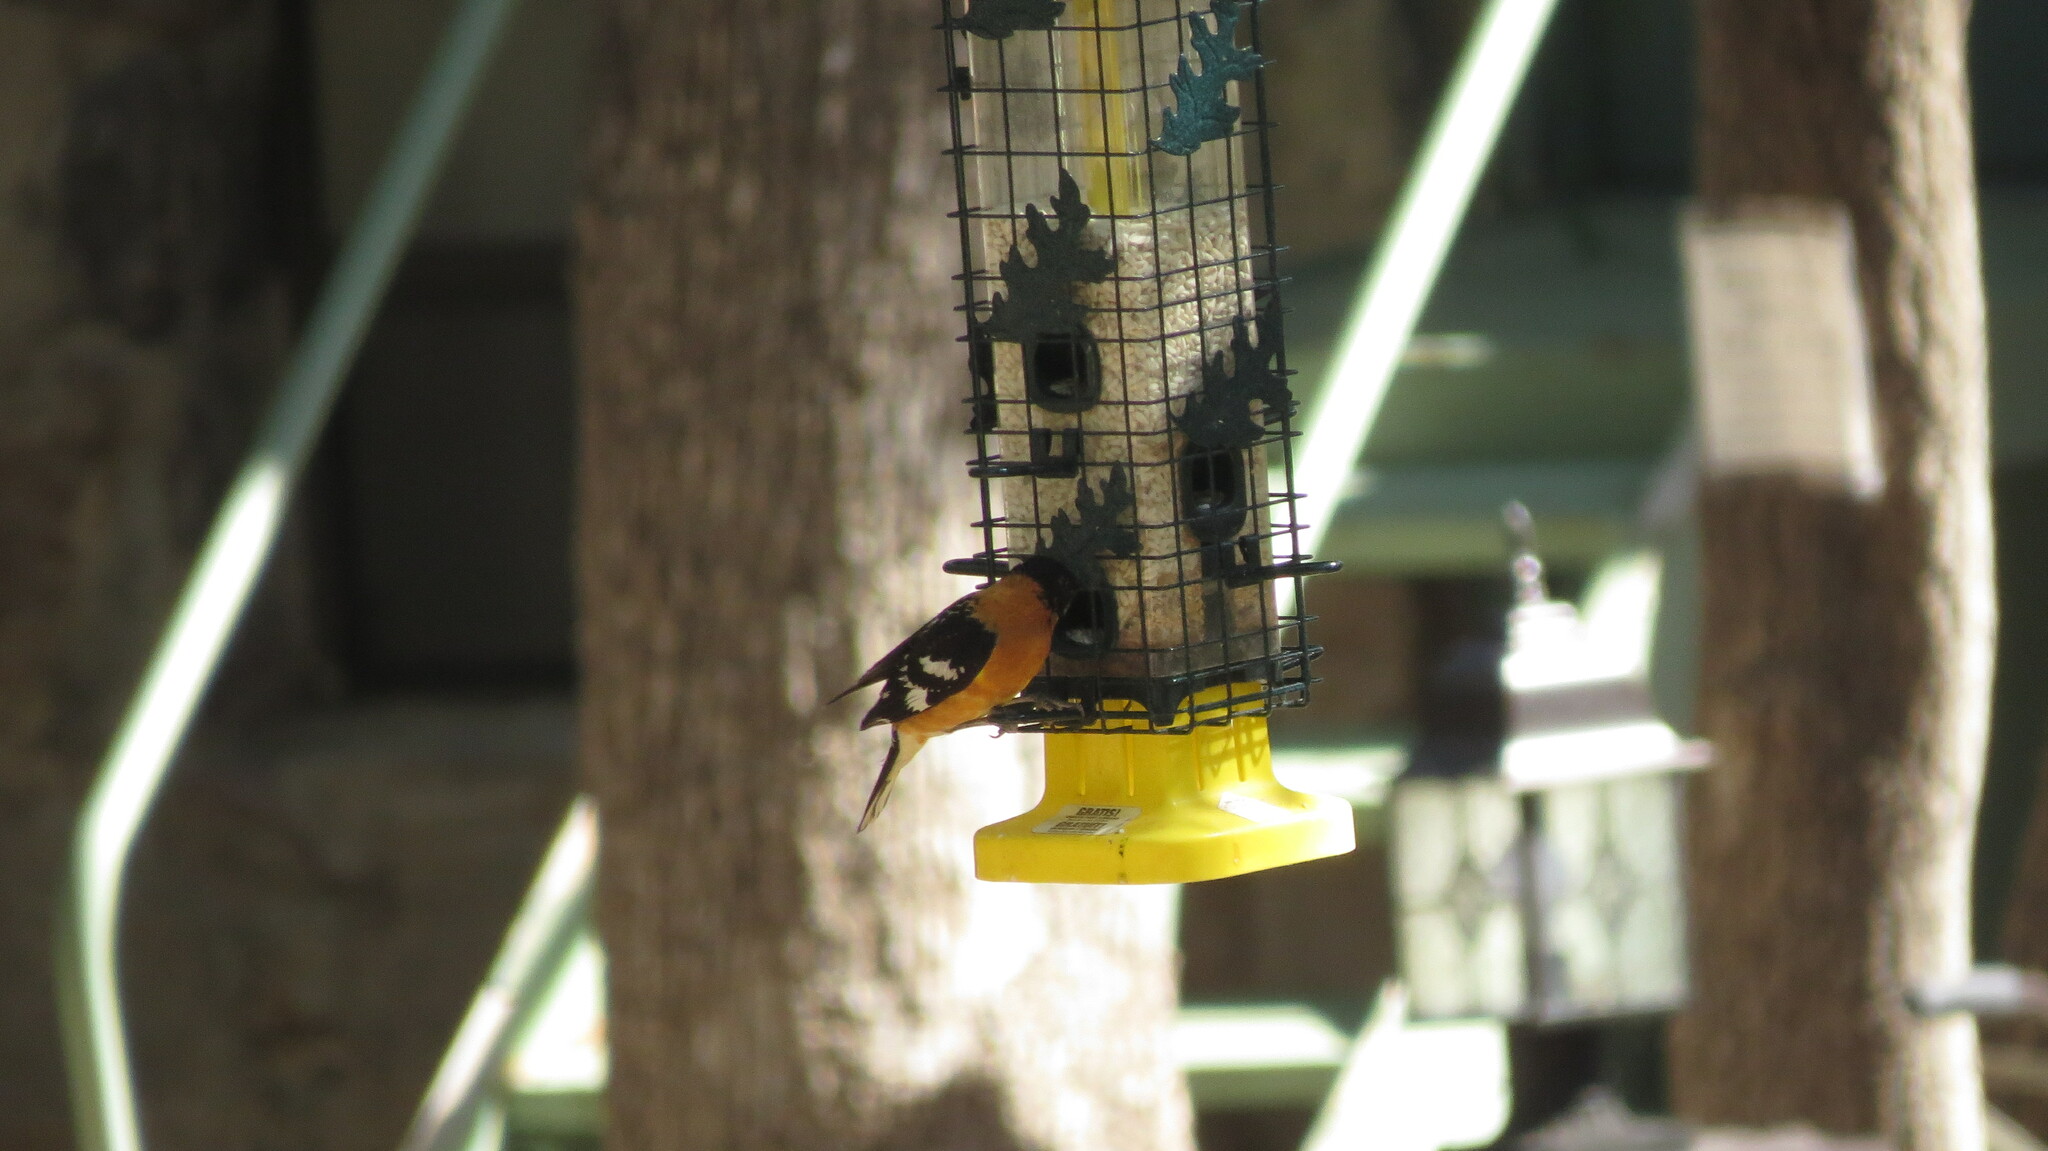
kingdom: Animalia
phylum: Chordata
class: Aves
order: Passeriformes
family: Cardinalidae
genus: Pheucticus
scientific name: Pheucticus melanocephalus
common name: Black-headed grosbeak
